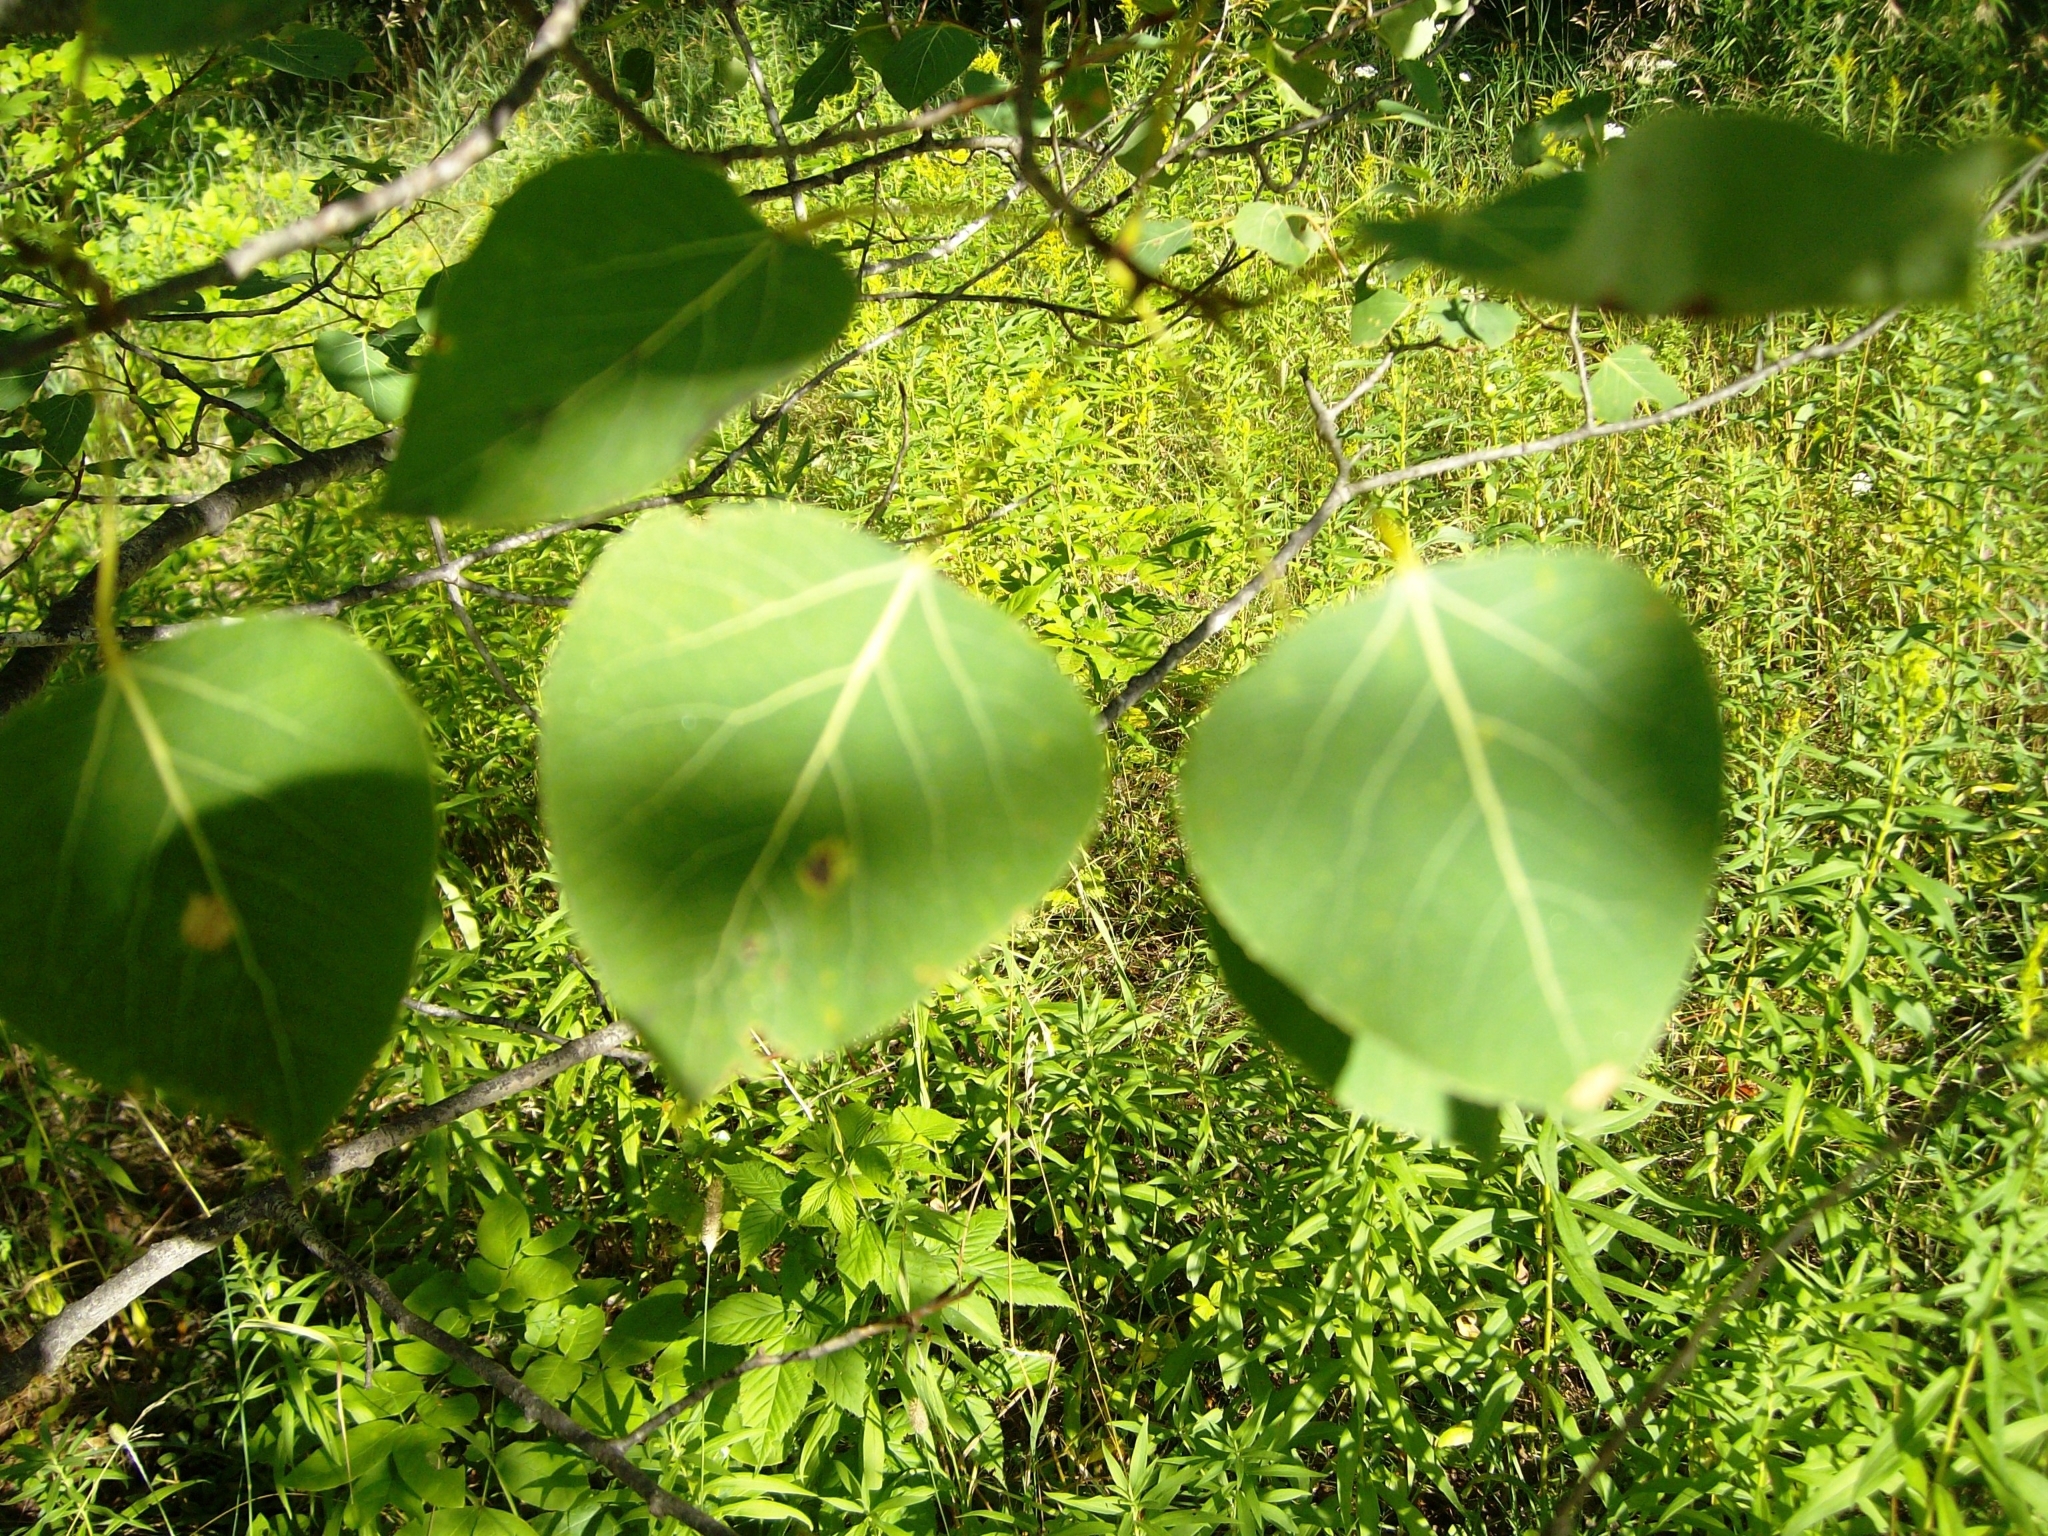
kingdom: Plantae
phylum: Tracheophyta
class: Magnoliopsida
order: Malpighiales
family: Salicaceae
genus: Populus
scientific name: Populus tremuloides
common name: Quaking aspen
